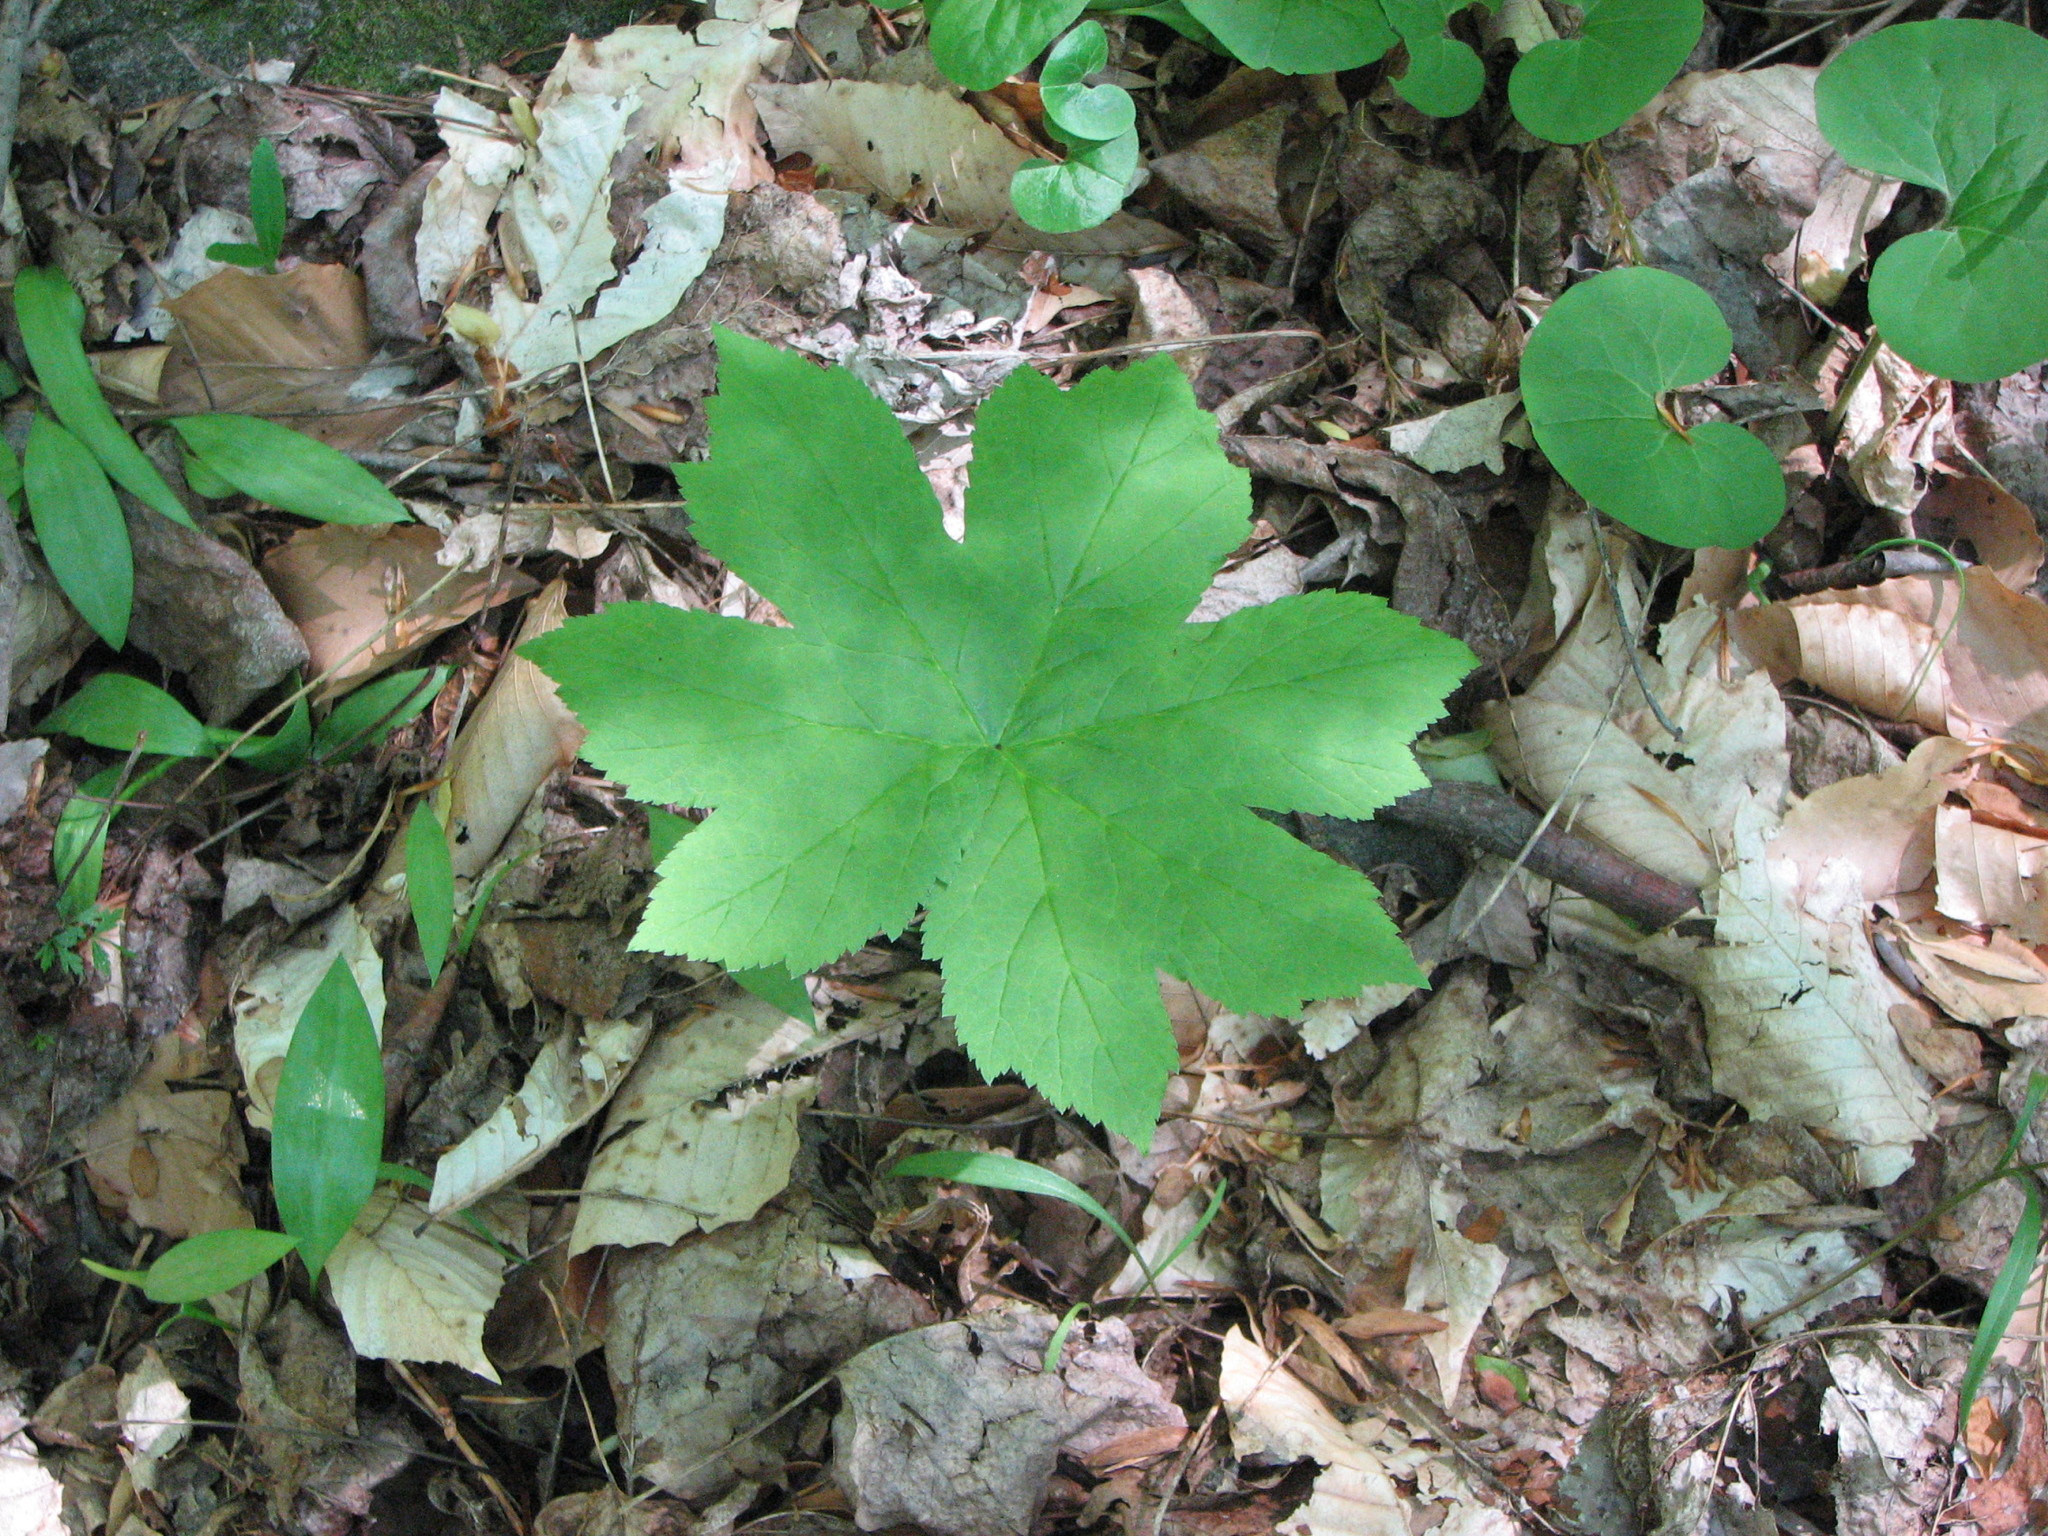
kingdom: Plantae
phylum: Tracheophyta
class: Magnoliopsida
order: Boraginales
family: Hydrophyllaceae
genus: Hydrophyllum
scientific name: Hydrophyllum canadense
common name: Canada waterleaf
